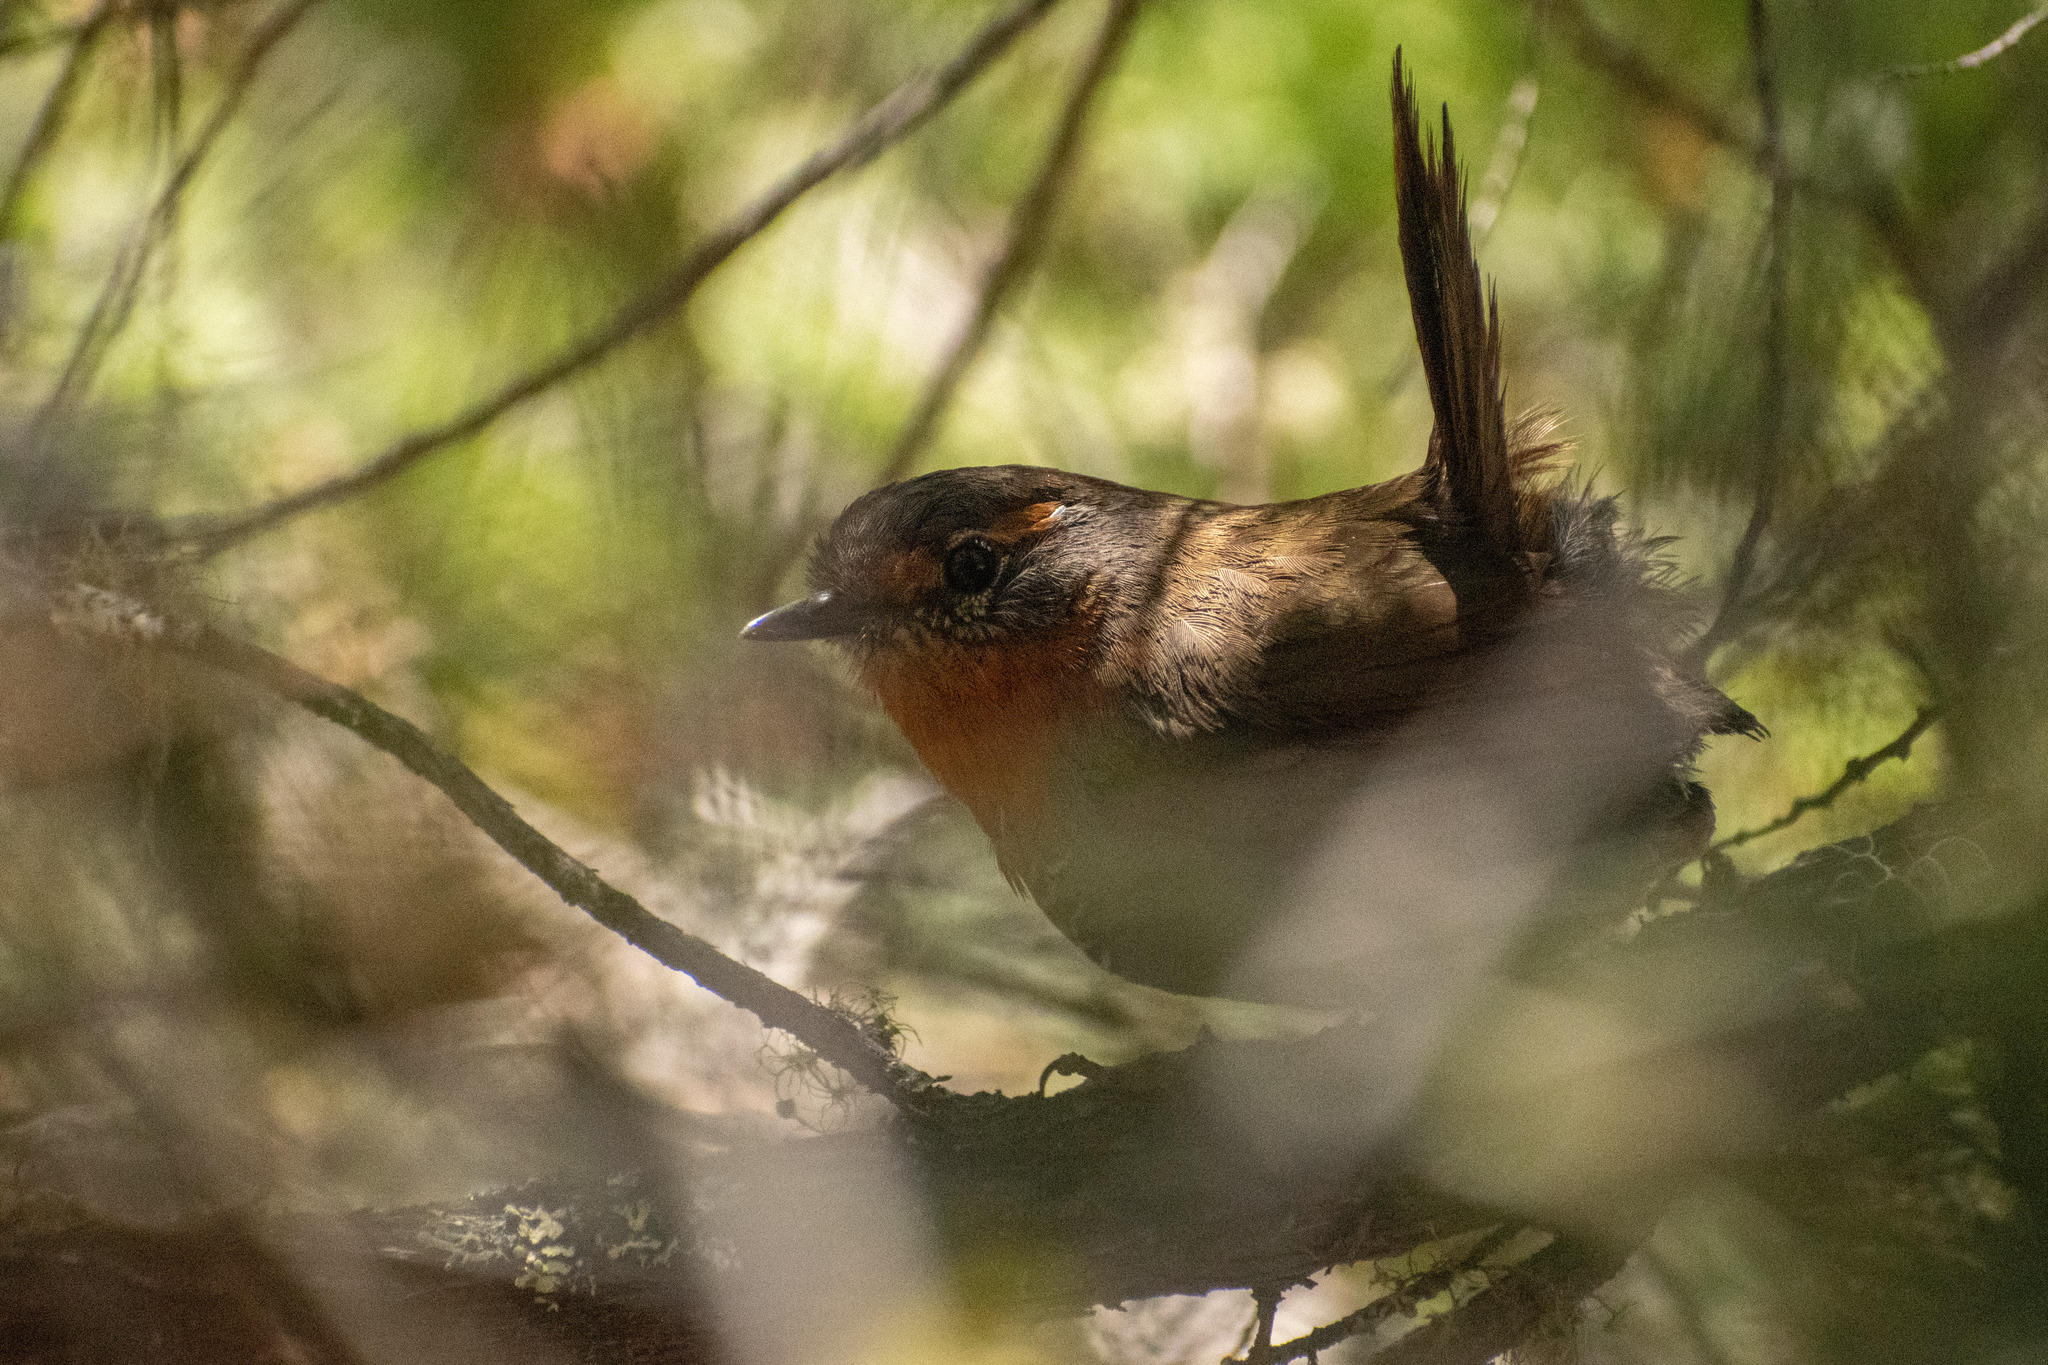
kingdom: Animalia
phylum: Chordata
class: Aves
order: Passeriformes
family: Rhinocryptidae
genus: Scelorchilus
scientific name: Scelorchilus rubecula
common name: Chucao tapaculo
